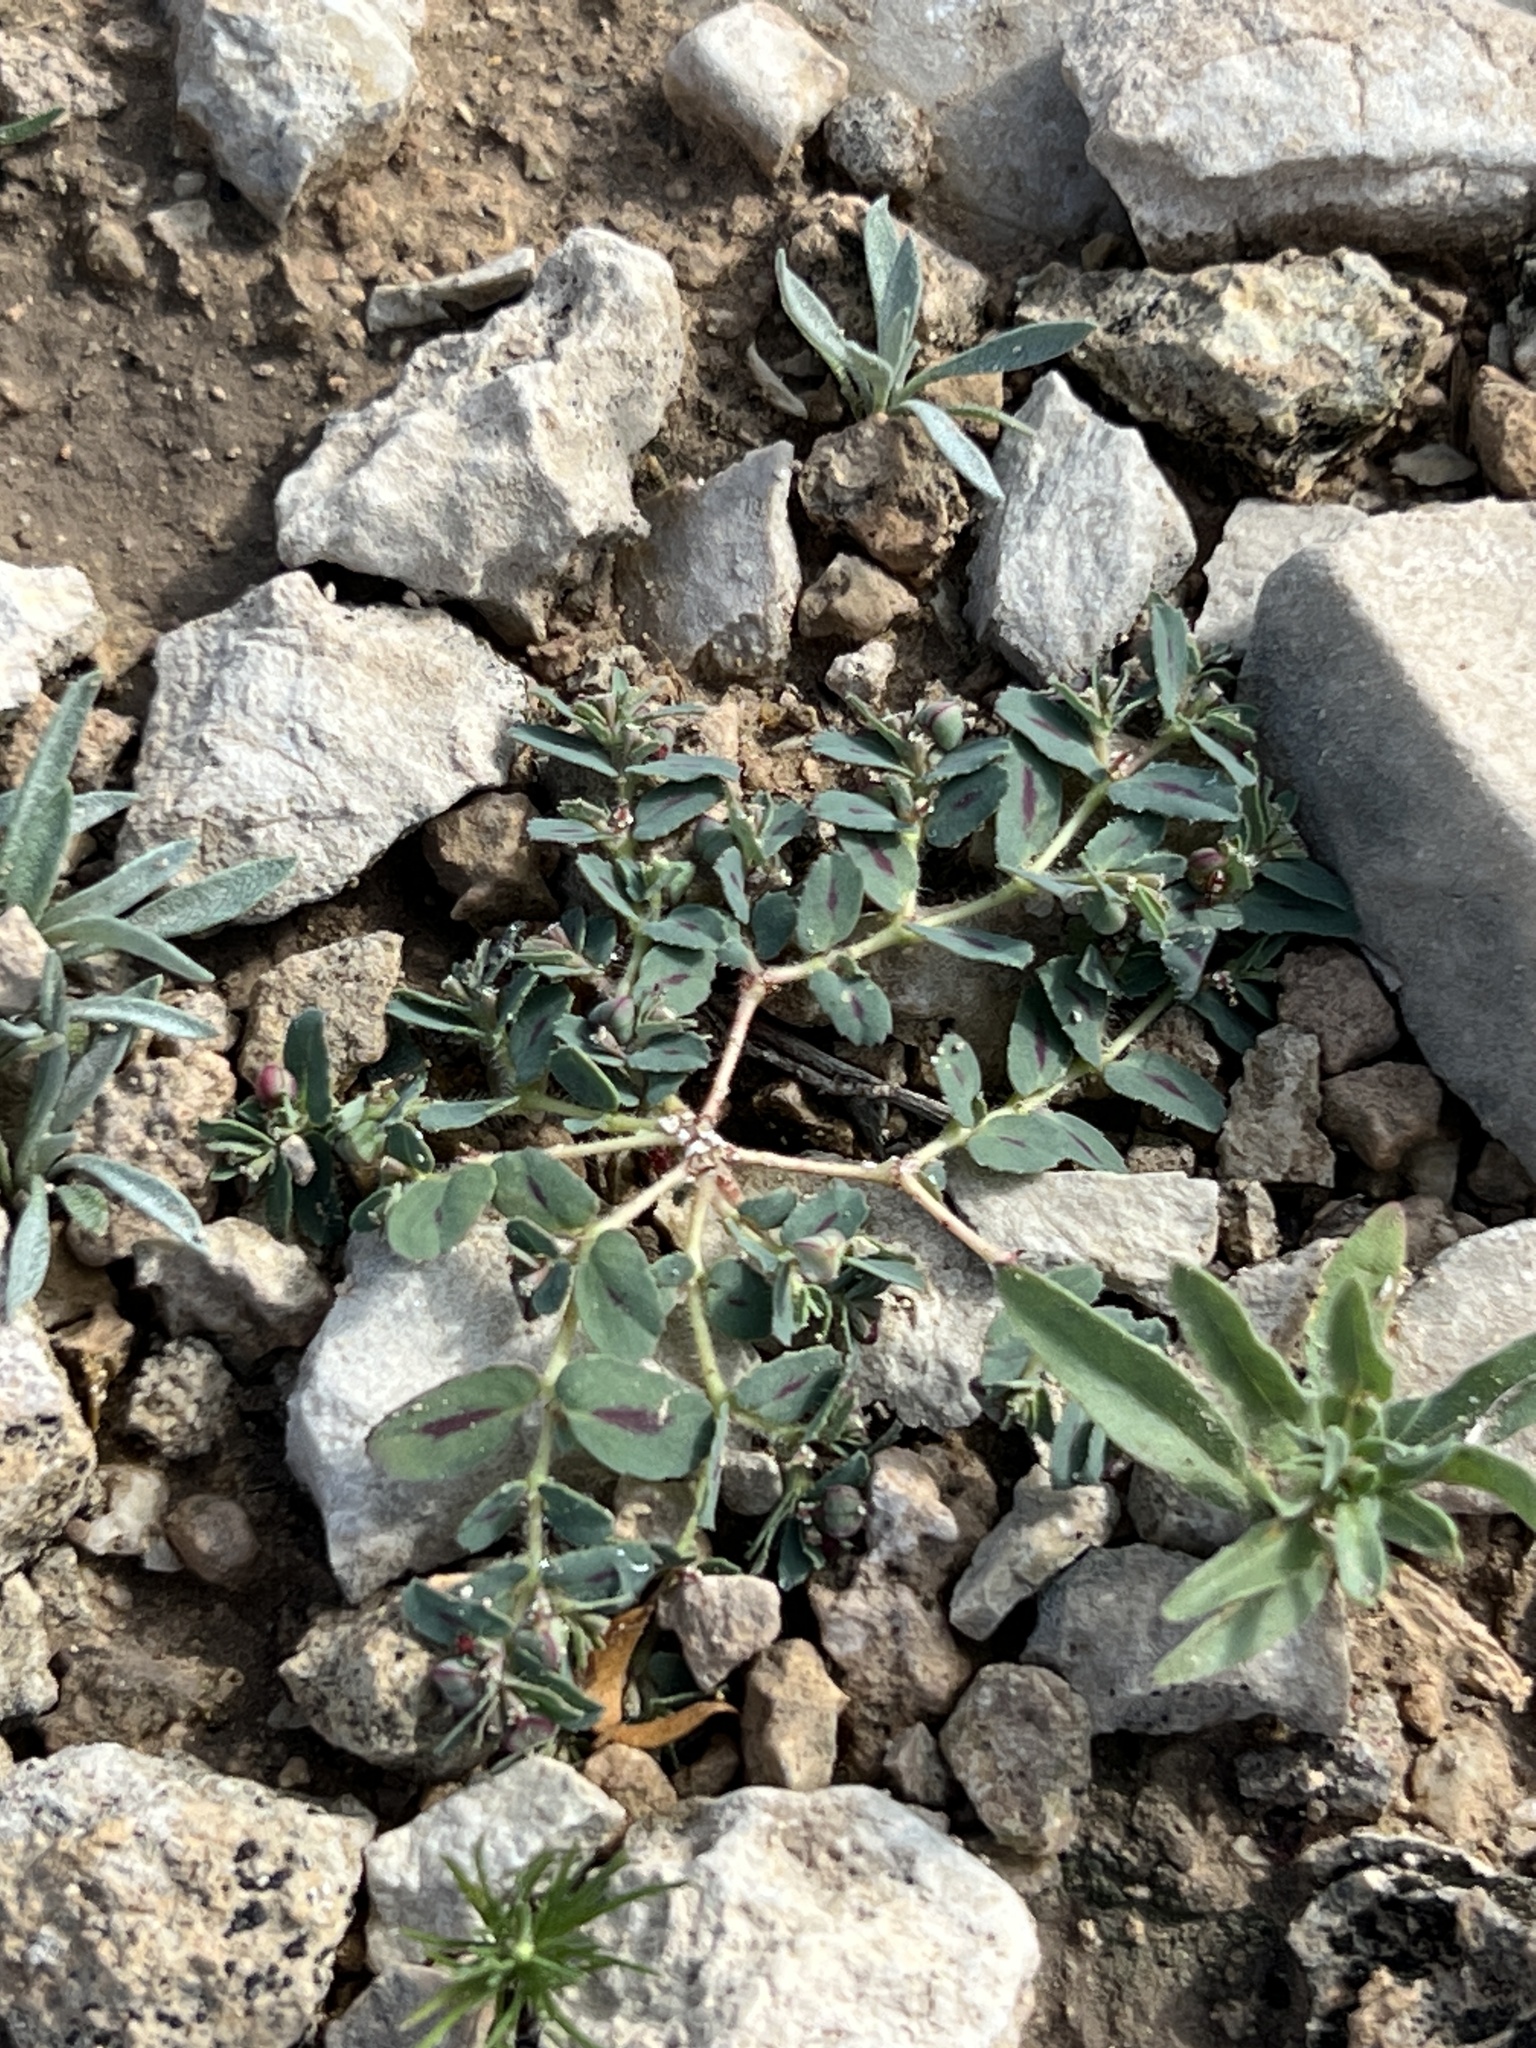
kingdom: Plantae
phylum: Tracheophyta
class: Magnoliopsida
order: Malpighiales
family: Euphorbiaceae
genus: Euphorbia
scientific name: Euphorbia serrula
